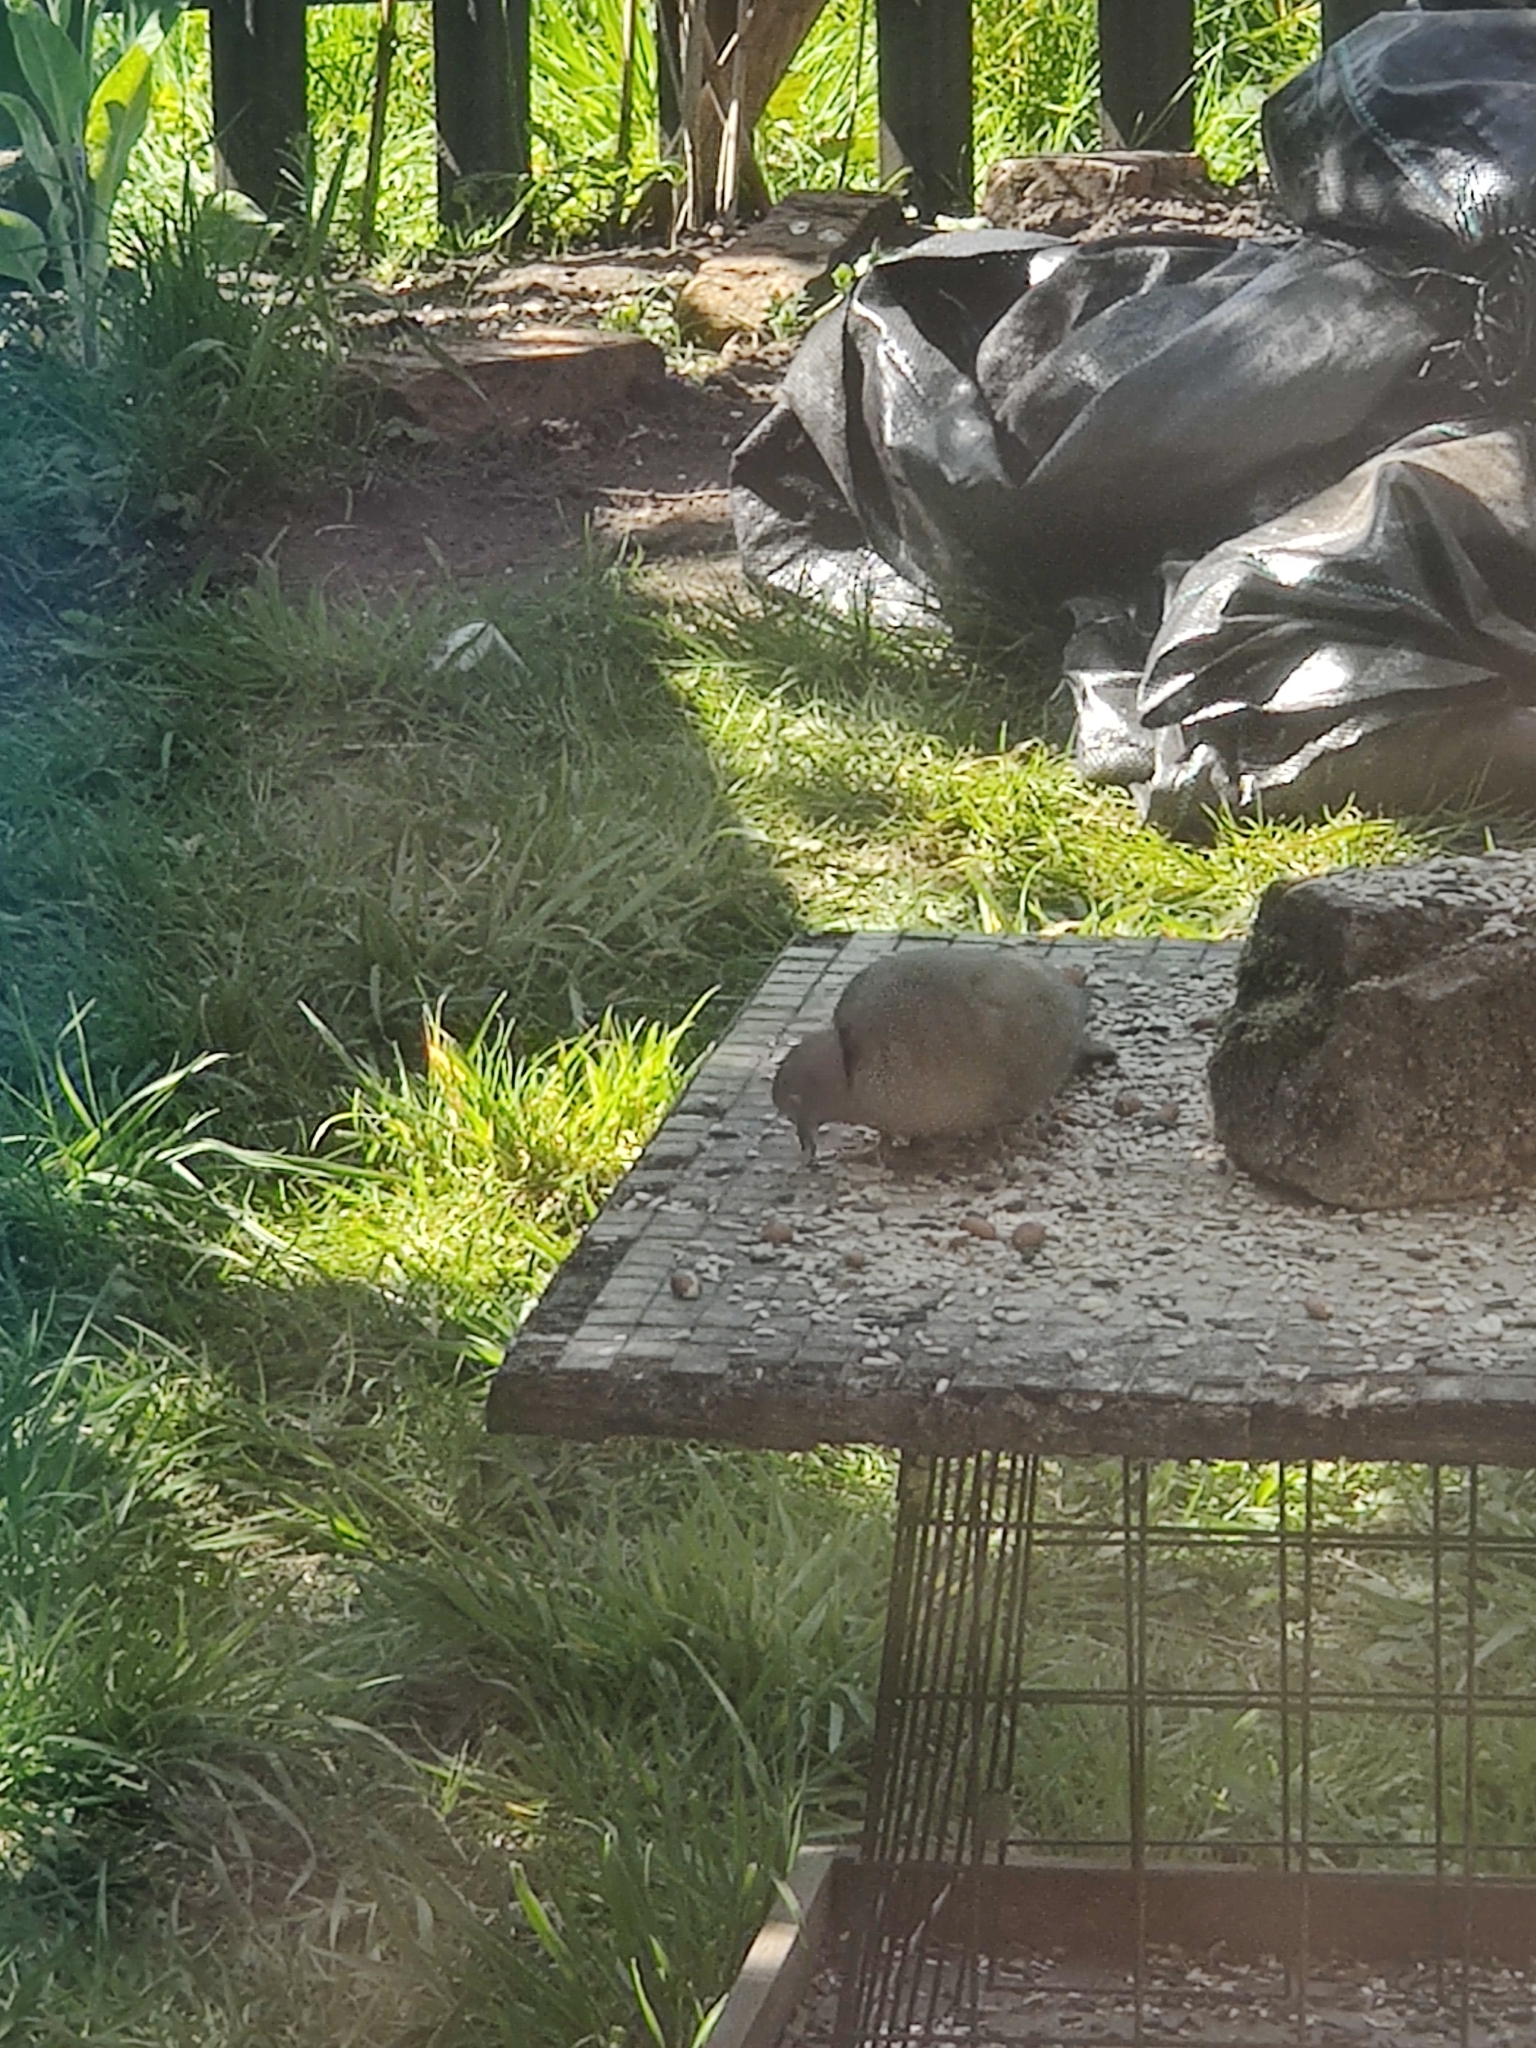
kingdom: Animalia
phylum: Chordata
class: Aves
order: Columbiformes
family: Columbidae
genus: Streptopelia
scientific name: Streptopelia decaocto
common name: Eurasian collared dove
